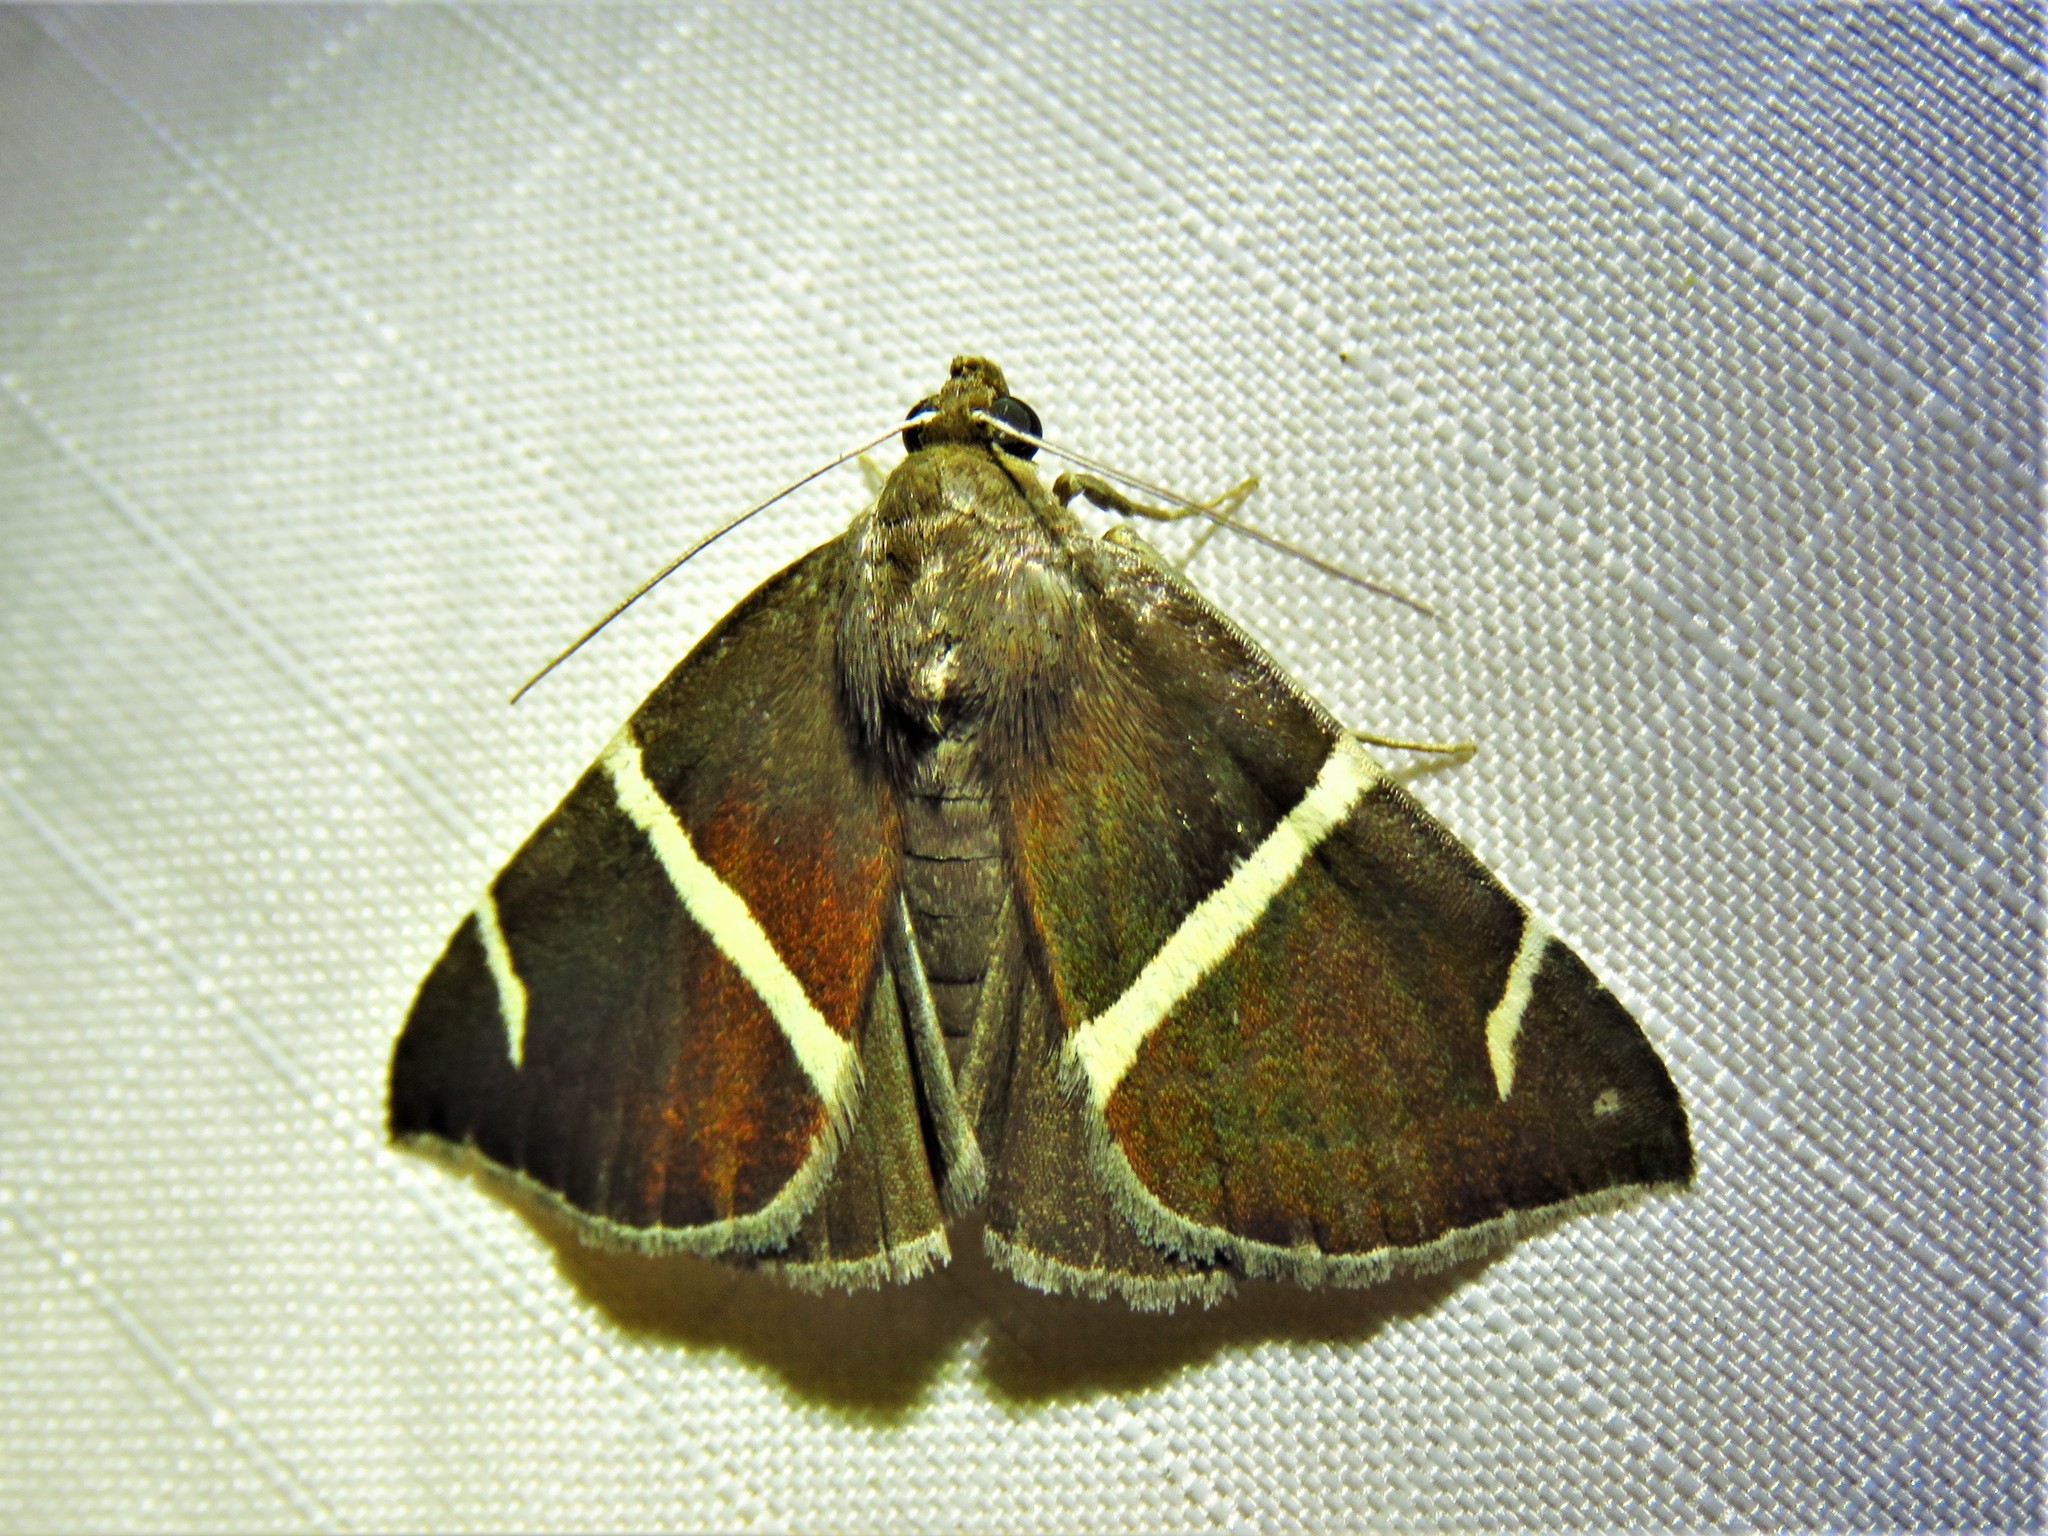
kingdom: Animalia
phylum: Arthropoda
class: Insecta
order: Lepidoptera
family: Erebidae
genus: Argyrostrotis
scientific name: Argyrostrotis anilis
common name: Short-lined chocolate
